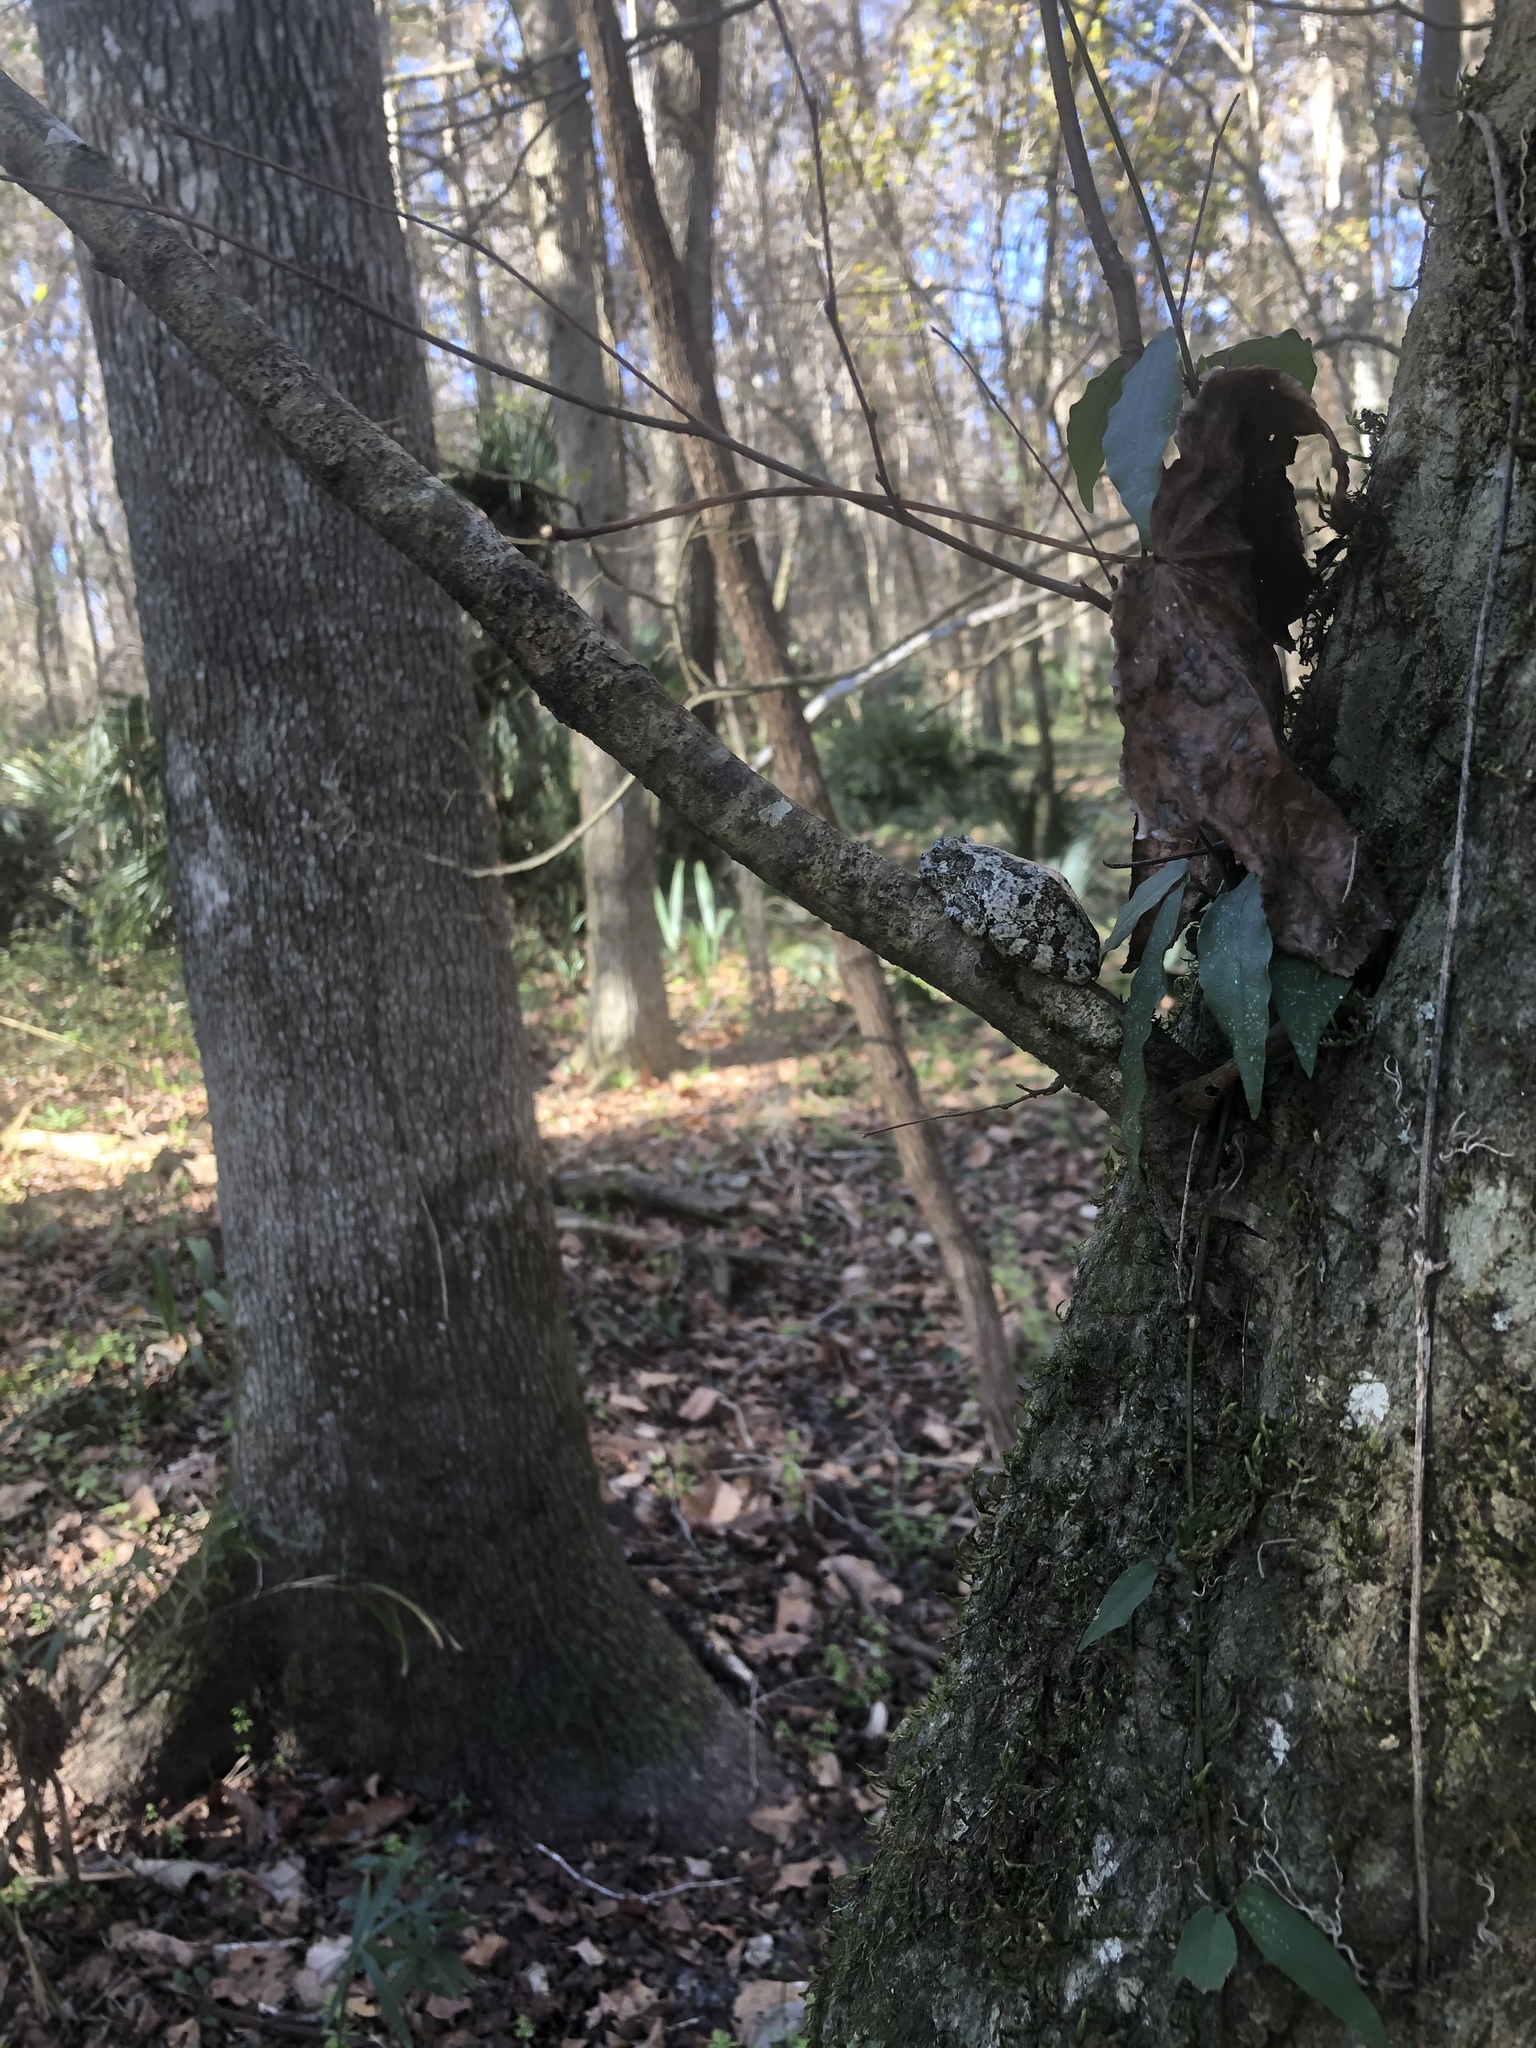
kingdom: Animalia
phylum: Chordata
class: Amphibia
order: Anura
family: Hylidae
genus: Dryophytes
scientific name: Dryophytes chrysoscelis
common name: Cope's gray treefrog
